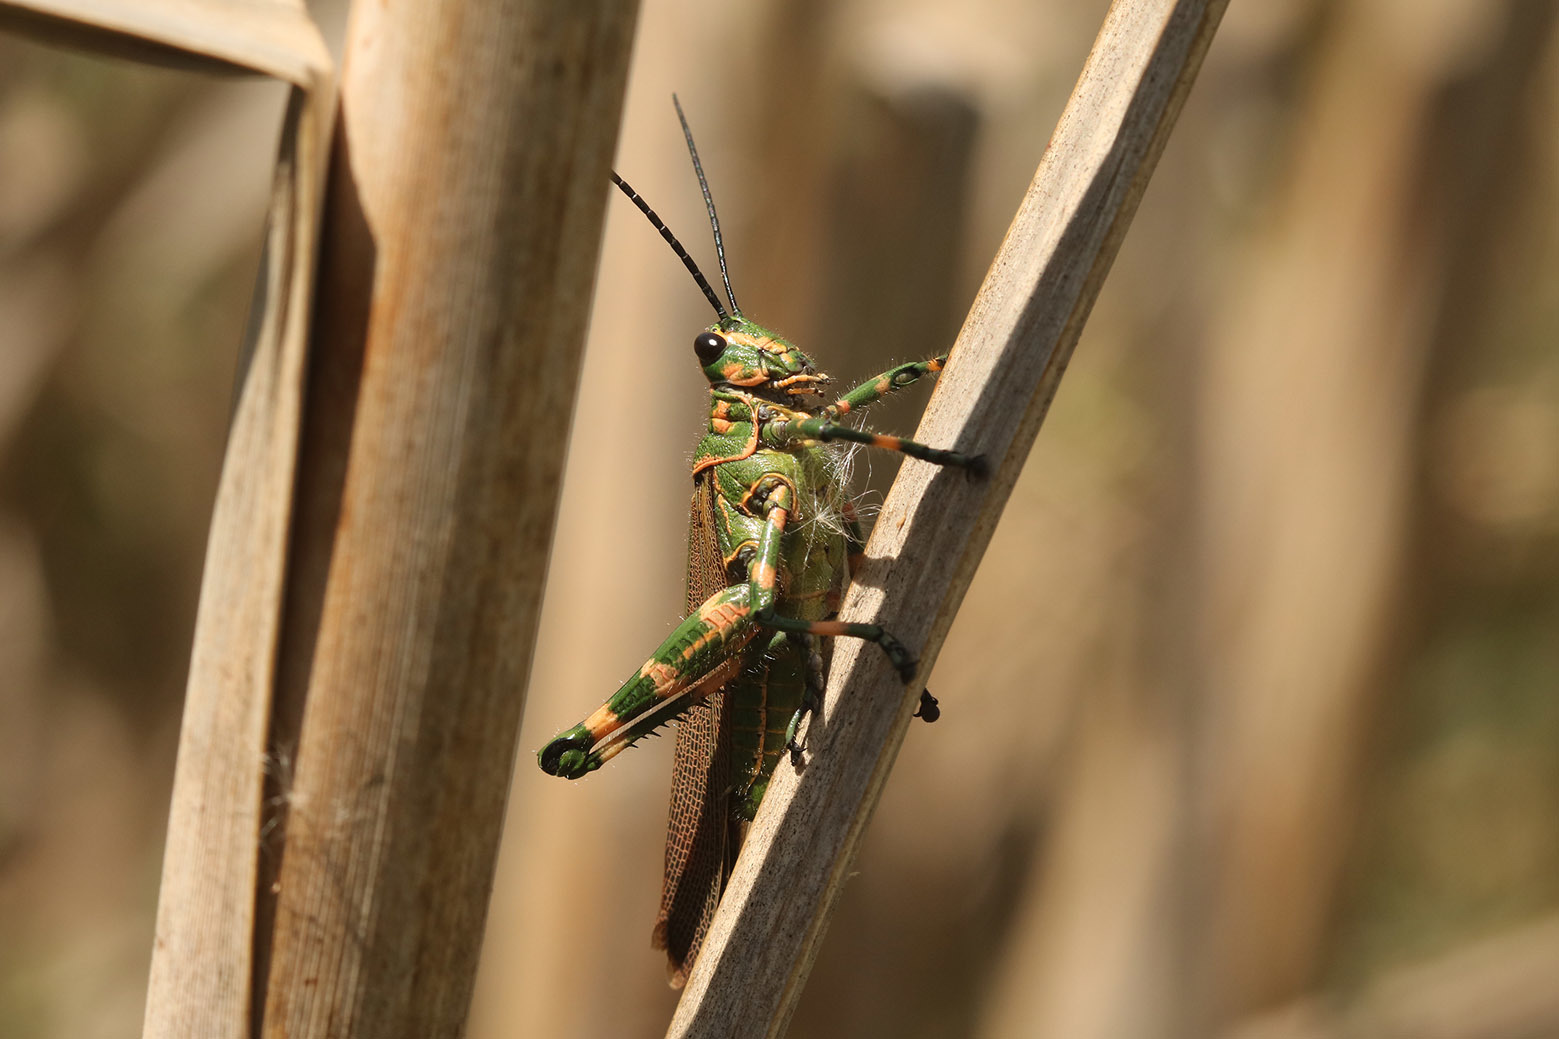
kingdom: Animalia
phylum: Arthropoda
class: Insecta
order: Orthoptera
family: Romaleidae
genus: Chromacris
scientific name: Chromacris speciosa
